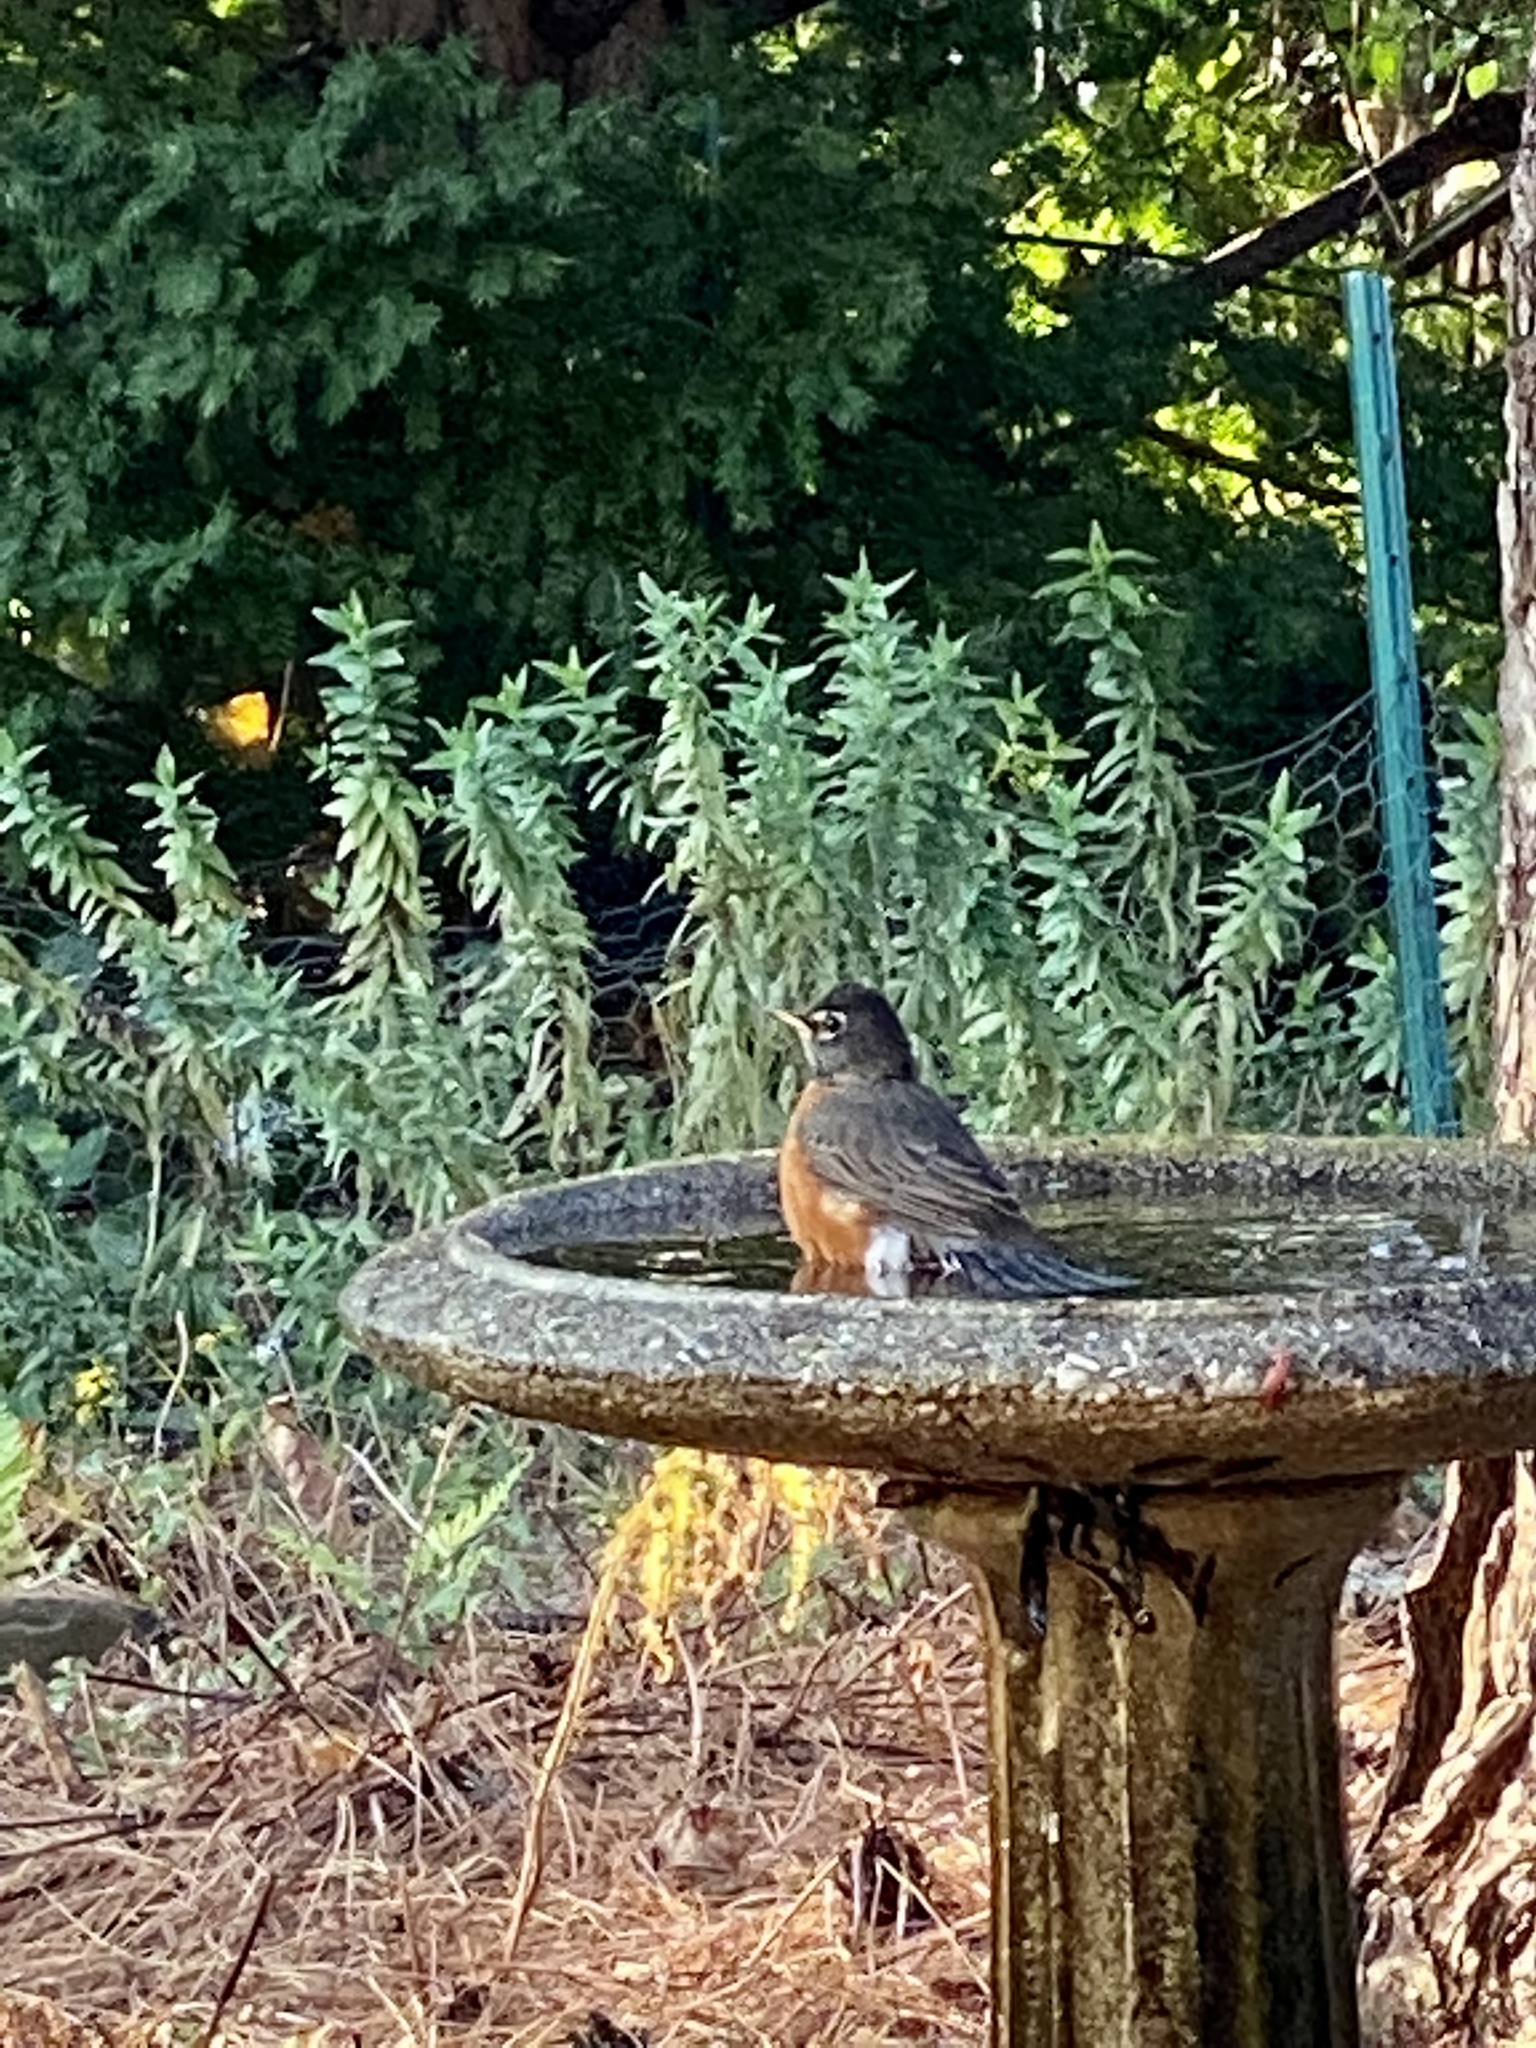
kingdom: Animalia
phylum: Chordata
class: Aves
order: Passeriformes
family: Turdidae
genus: Turdus
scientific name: Turdus migratorius
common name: American robin
